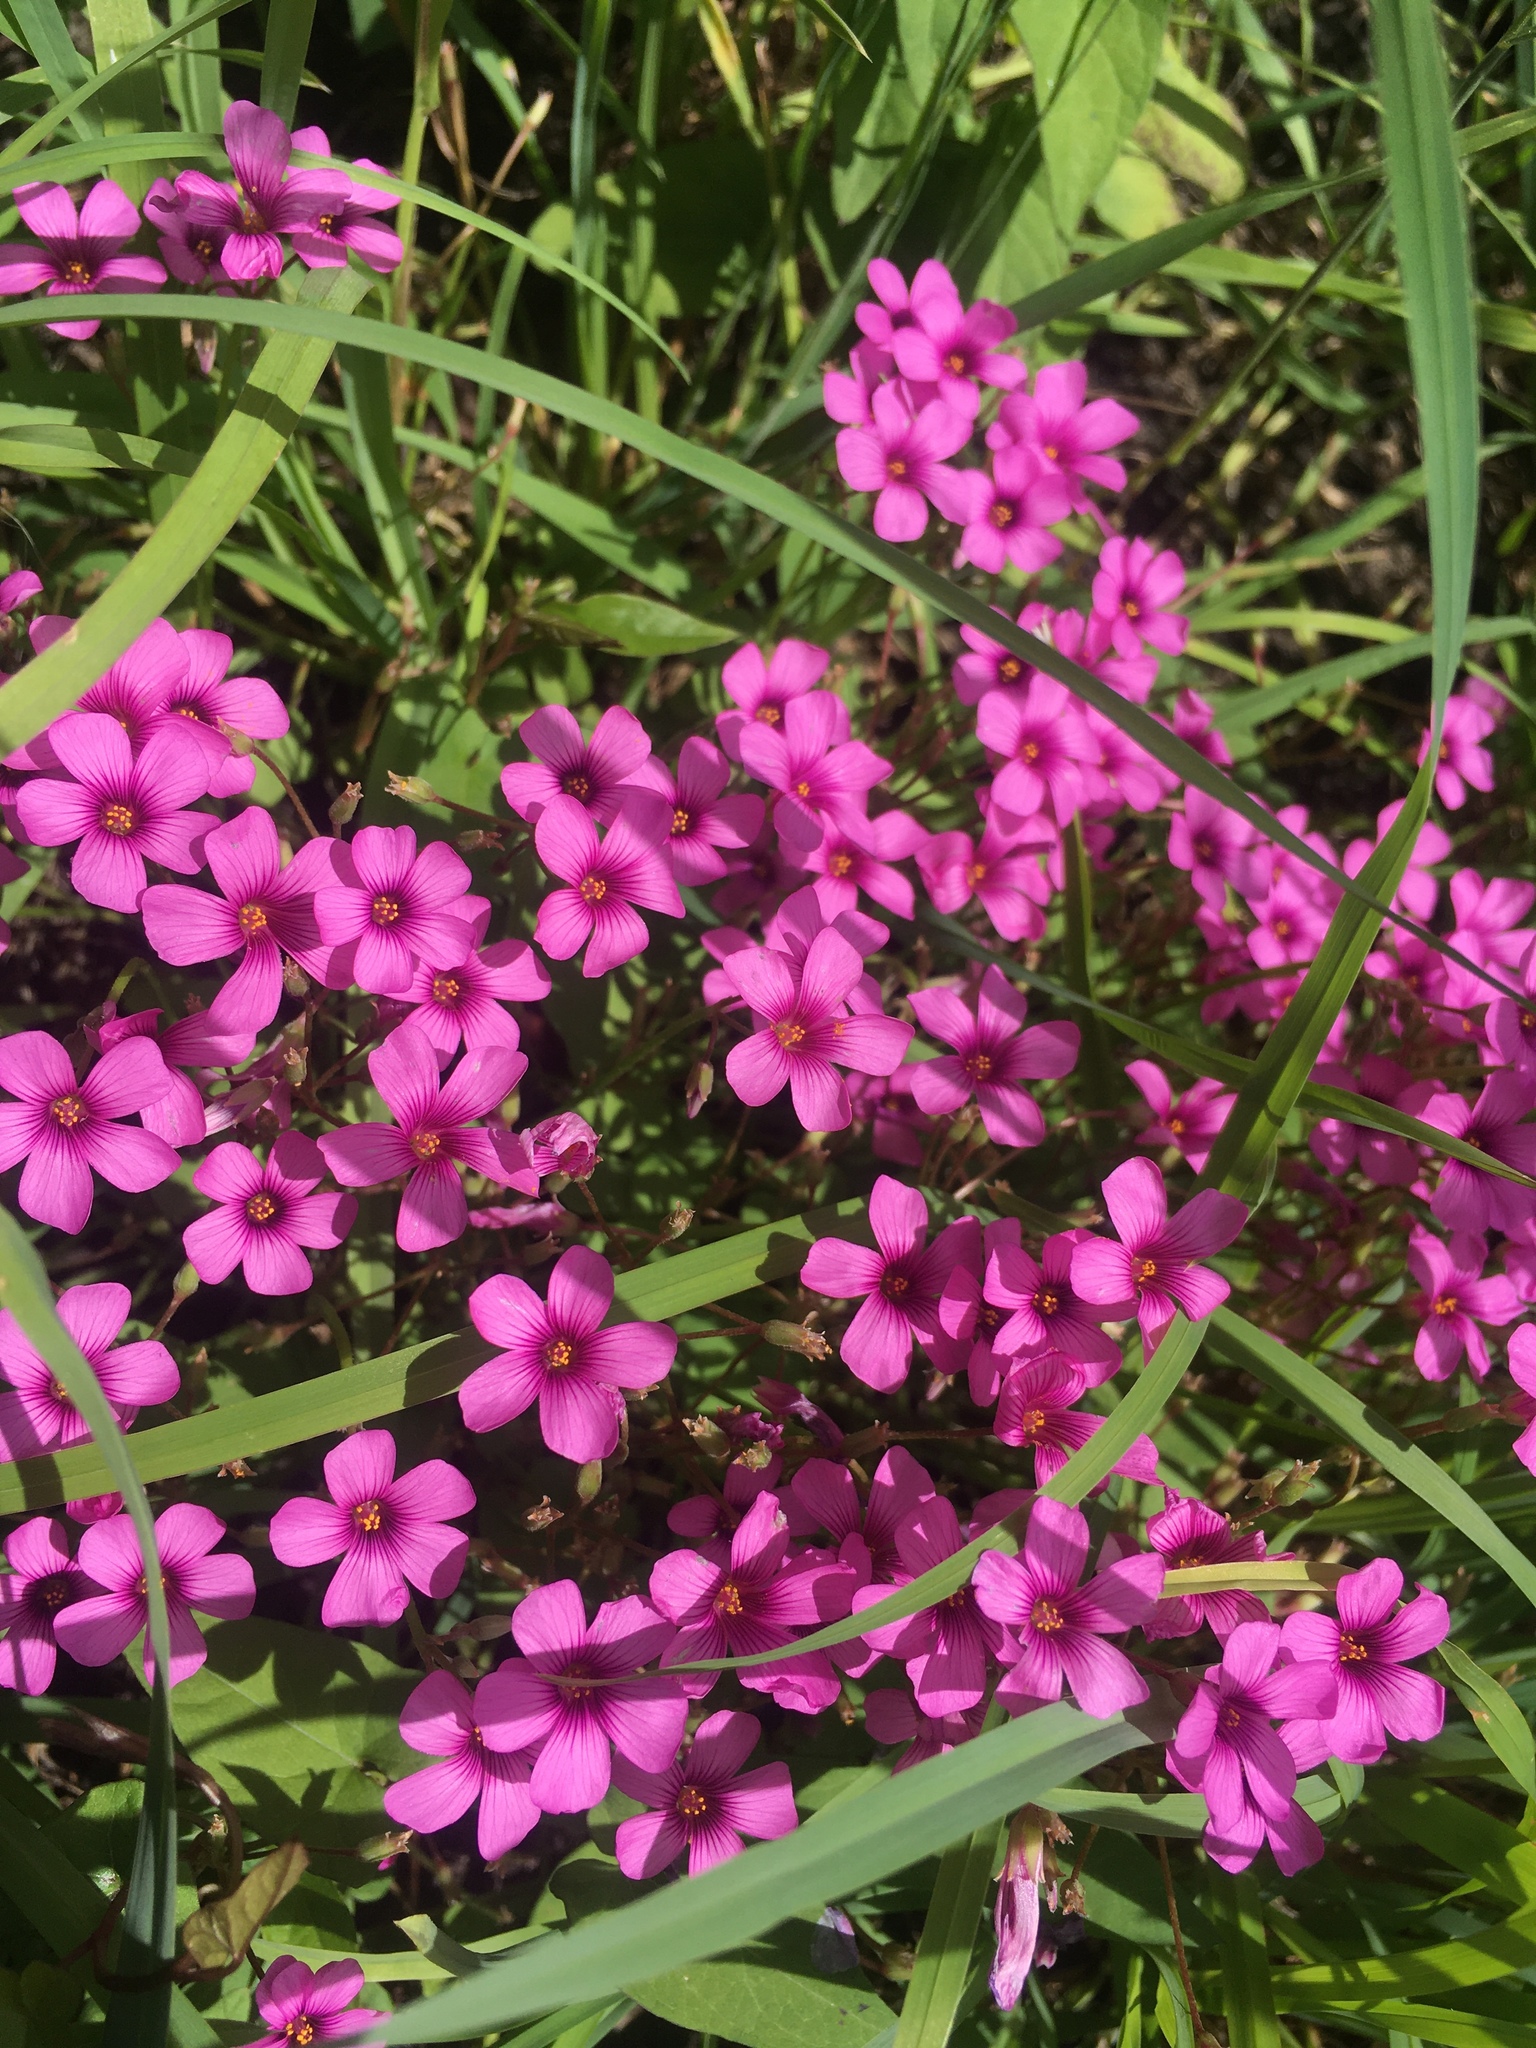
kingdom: Plantae
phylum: Tracheophyta
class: Magnoliopsida
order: Oxalidales
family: Oxalidaceae
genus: Oxalis
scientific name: Oxalis articulata
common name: Pink-sorrel
